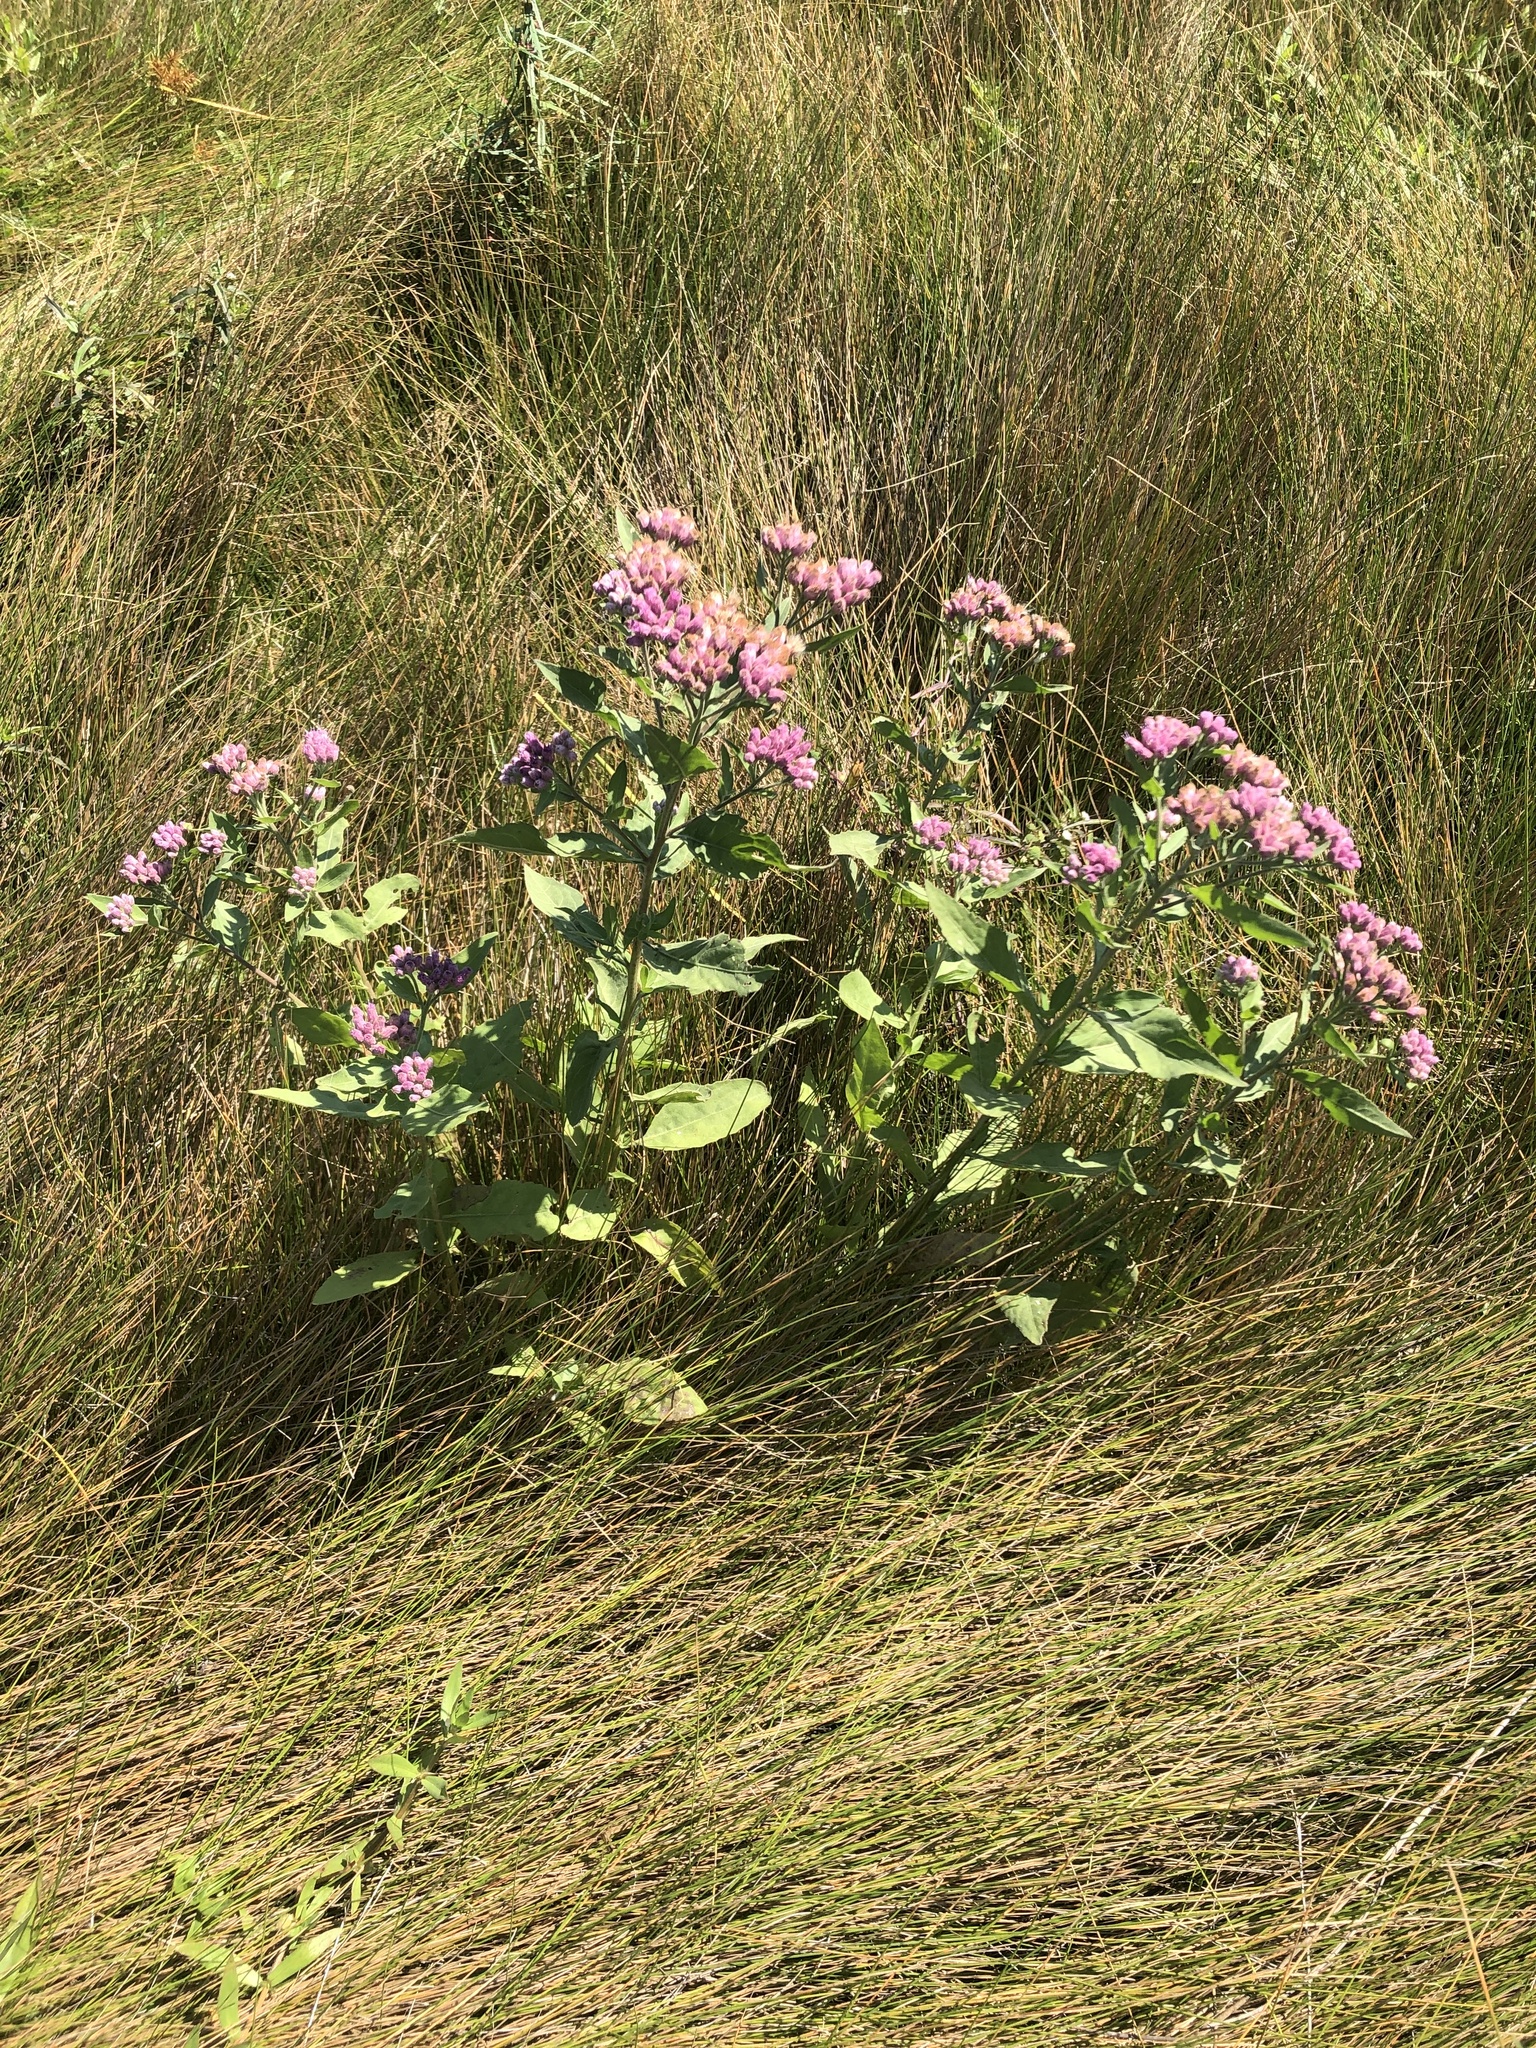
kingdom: Plantae
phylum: Tracheophyta
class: Magnoliopsida
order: Asterales
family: Asteraceae
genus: Pluchea
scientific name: Pluchea odorata
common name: Saltmarsh fleabane
